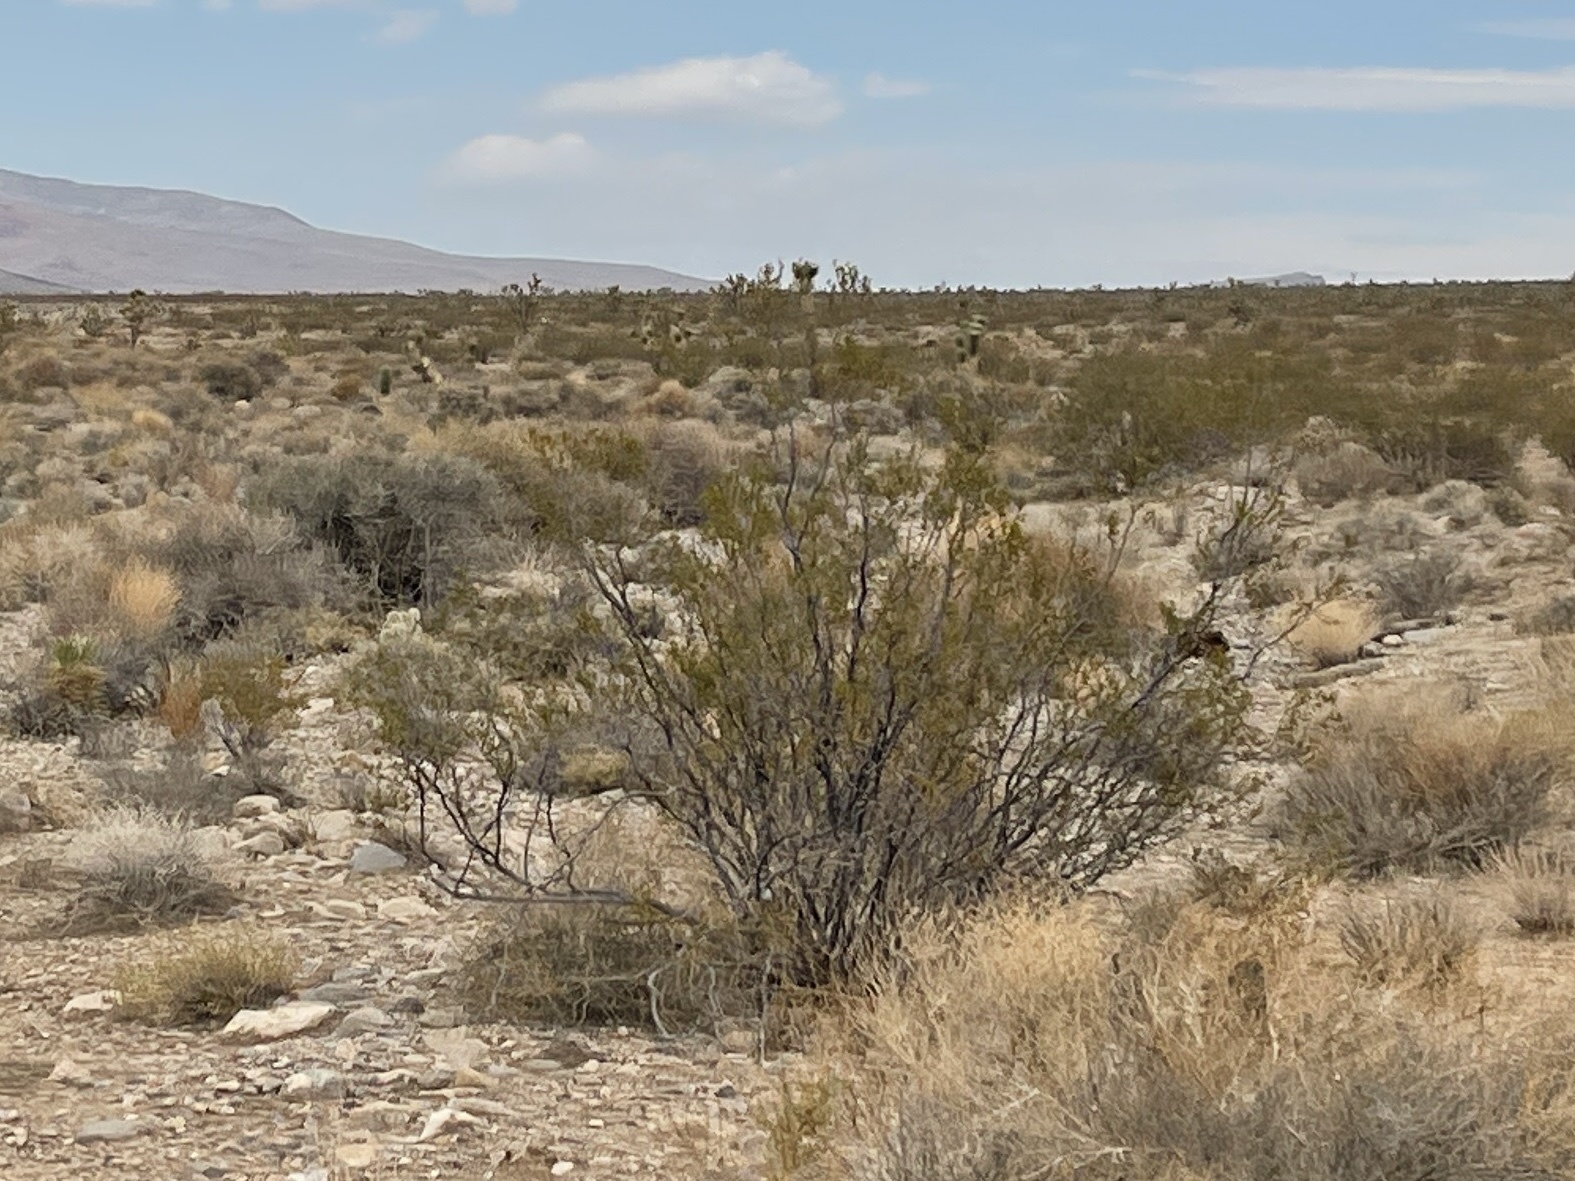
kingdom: Plantae
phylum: Tracheophyta
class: Magnoliopsida
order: Zygophyllales
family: Zygophyllaceae
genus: Larrea
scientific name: Larrea tridentata
